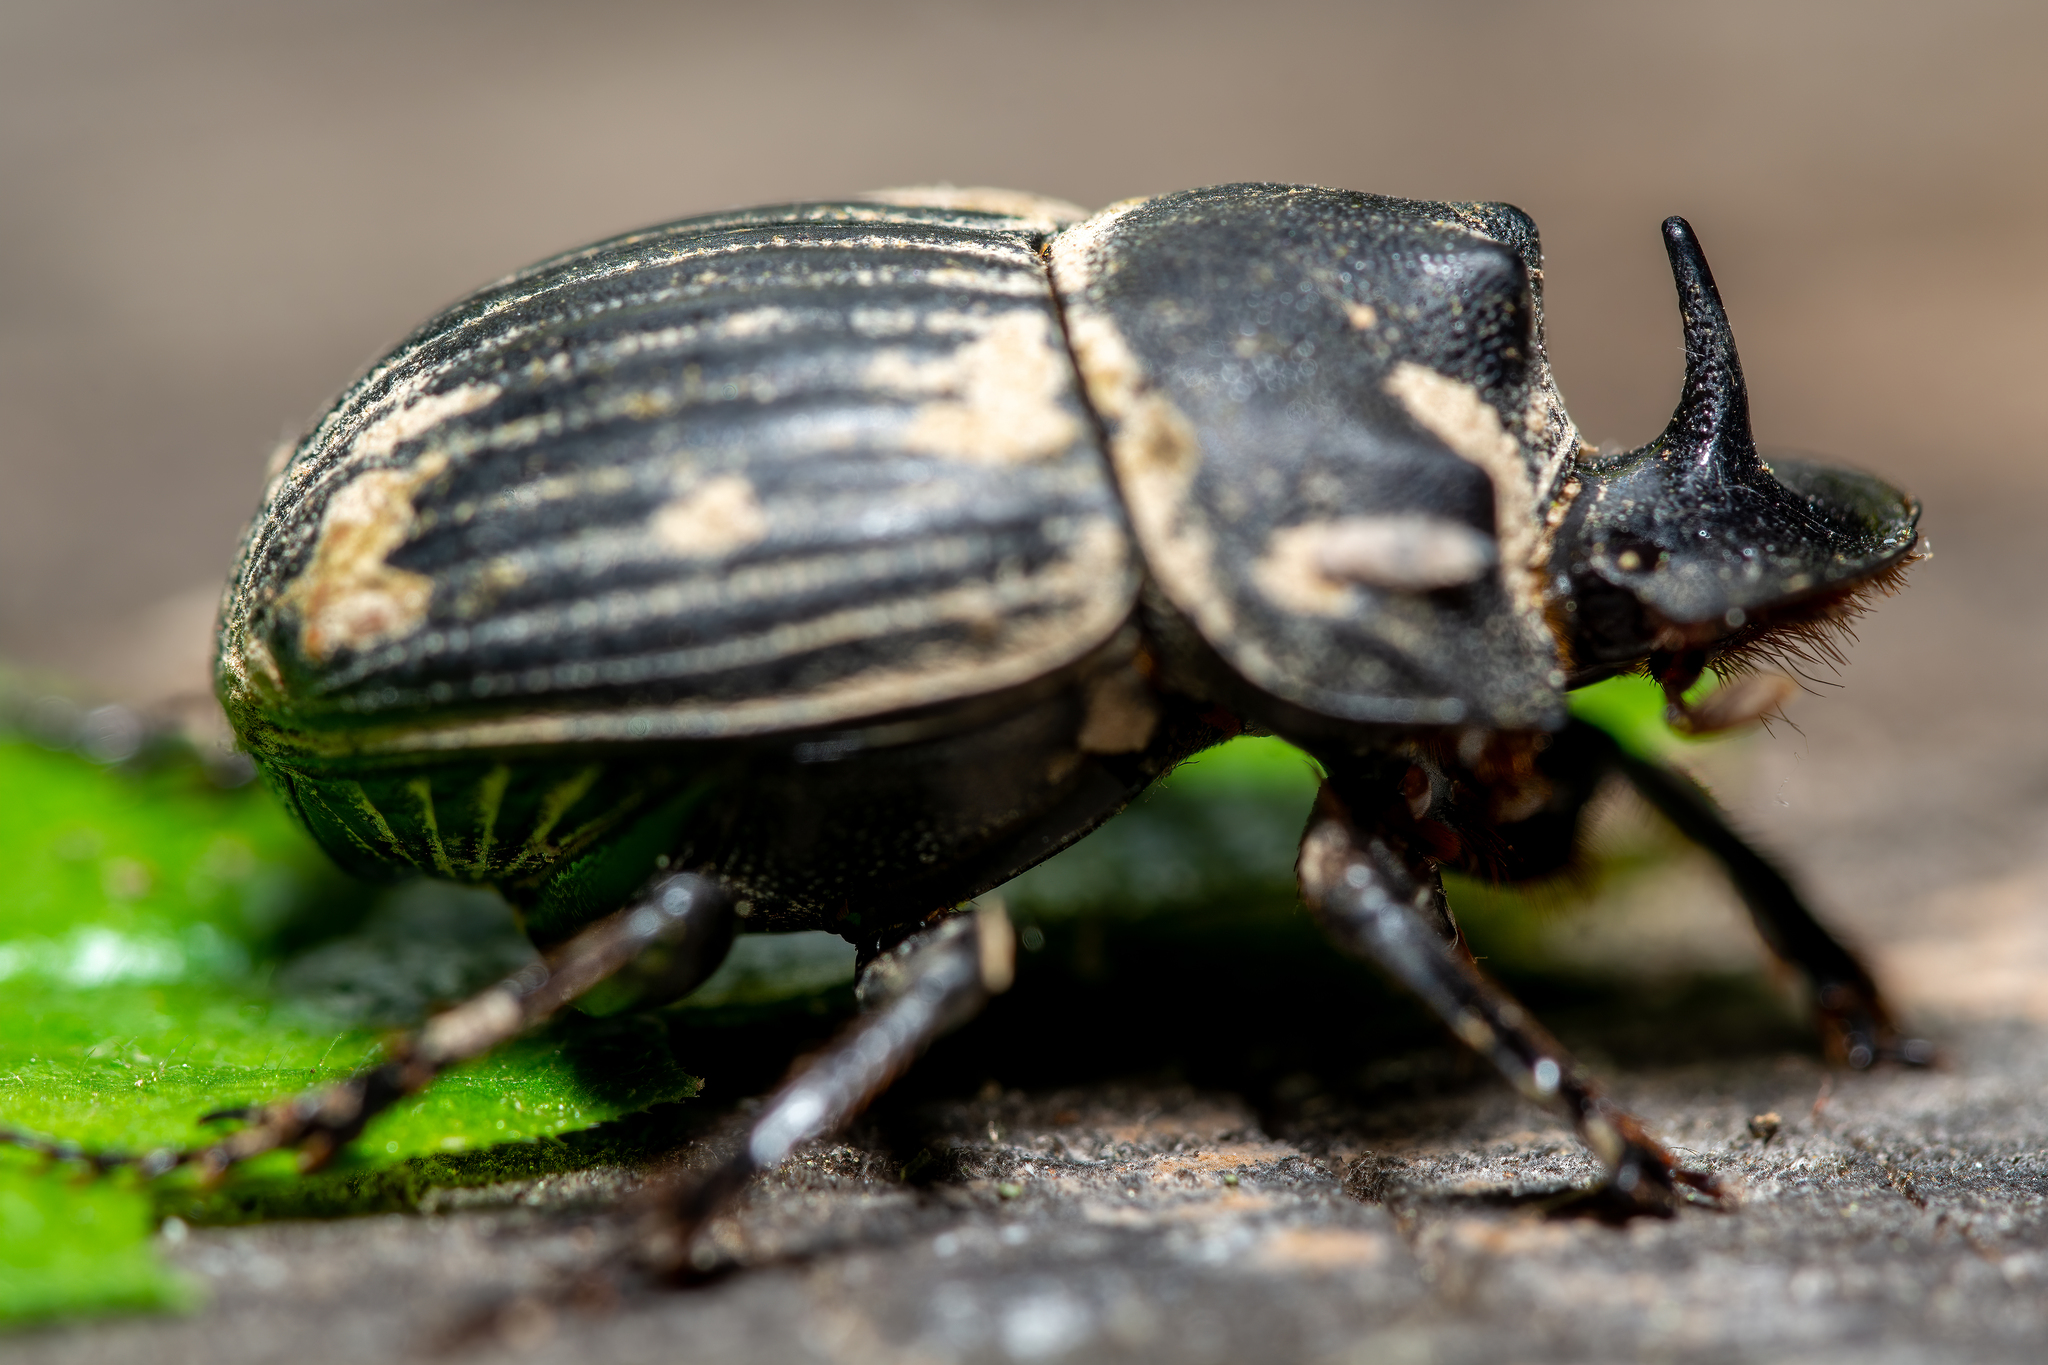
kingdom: Animalia
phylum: Arthropoda
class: Insecta
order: Coleoptera
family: Scarabaeidae
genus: Copris
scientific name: Copris fricator
